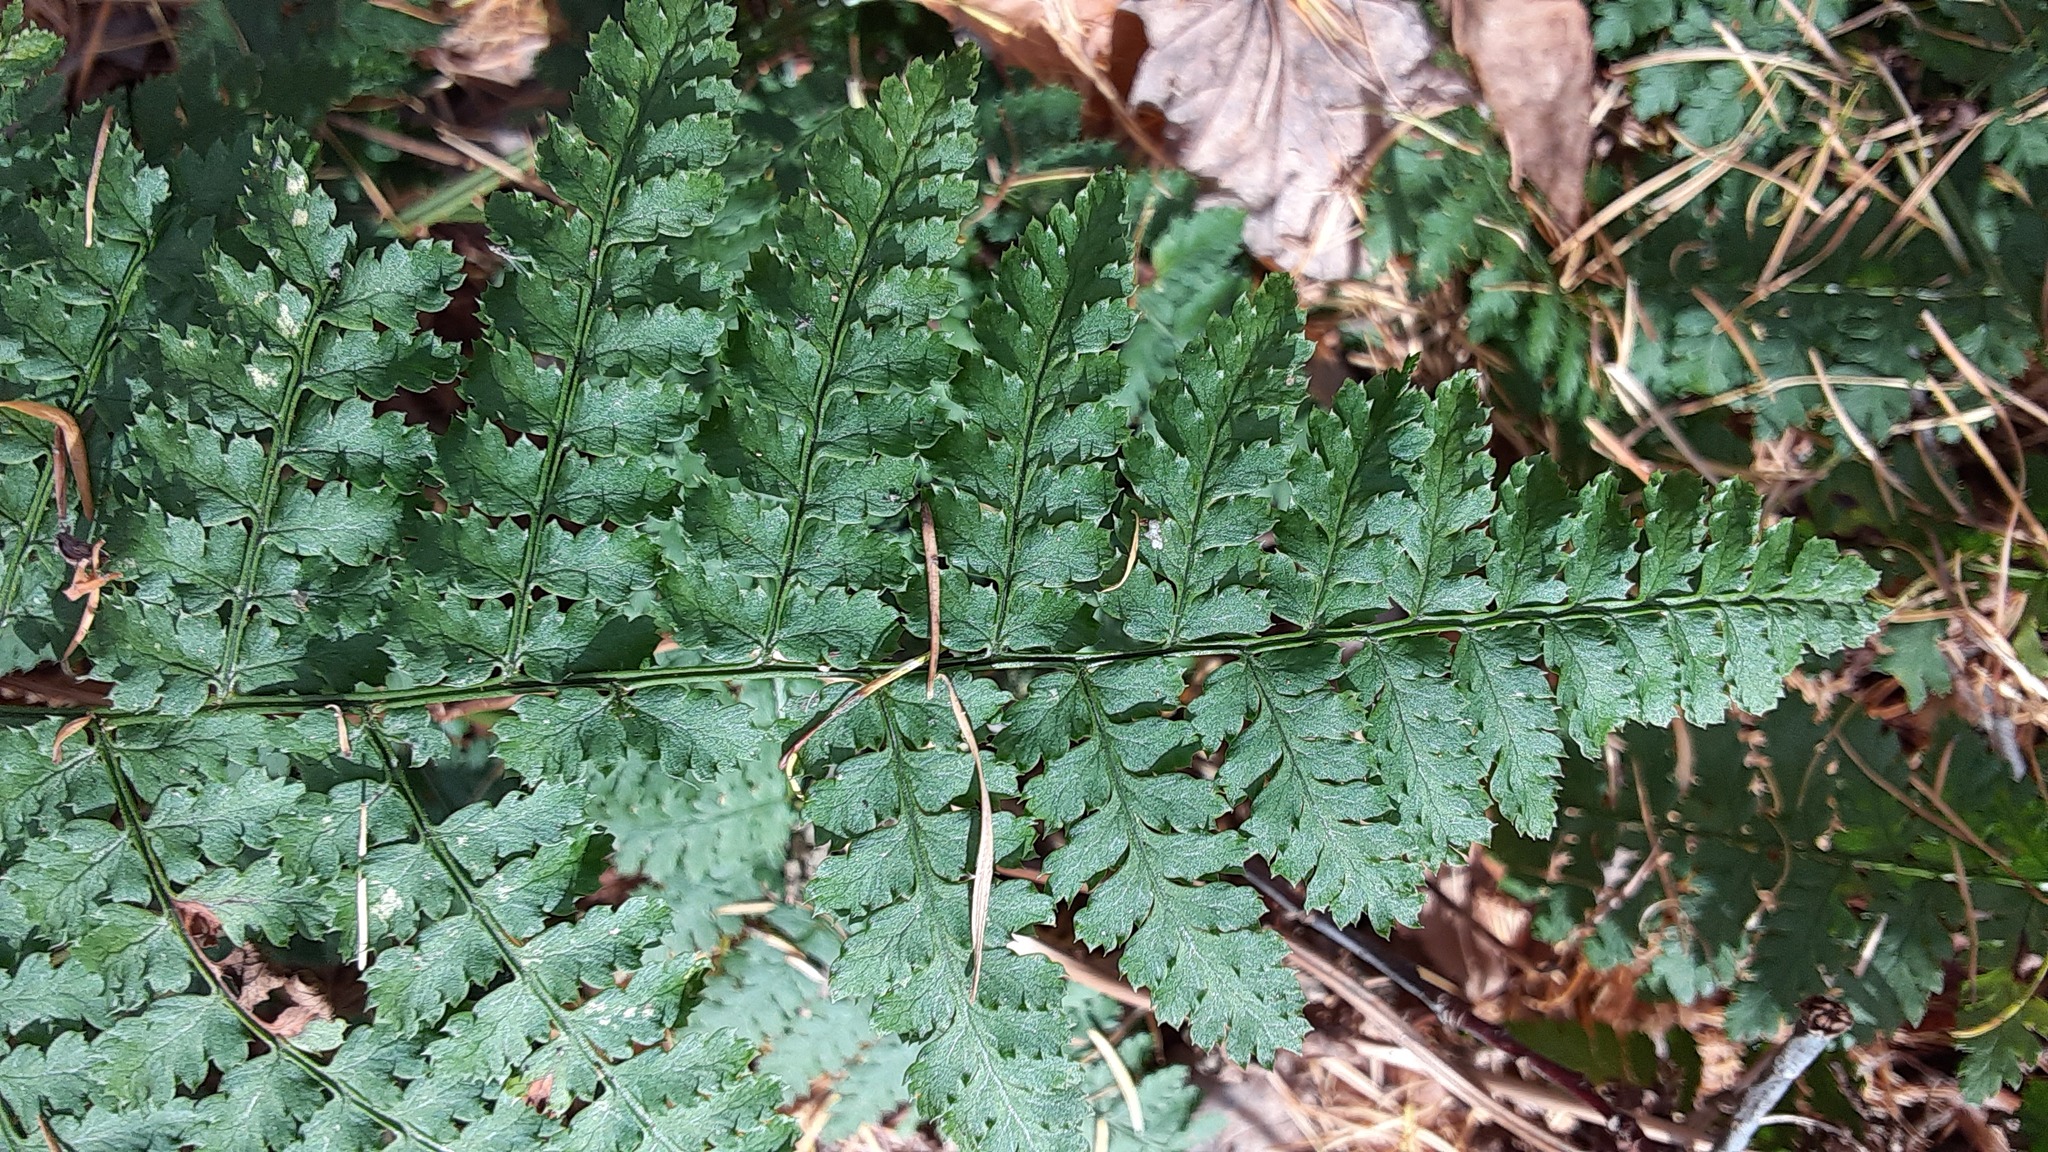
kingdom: Plantae
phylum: Tracheophyta
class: Polypodiopsida
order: Polypodiales
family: Dryopteridaceae
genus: Dryopteris
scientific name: Dryopteris intermedia
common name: Evergreen wood fern
